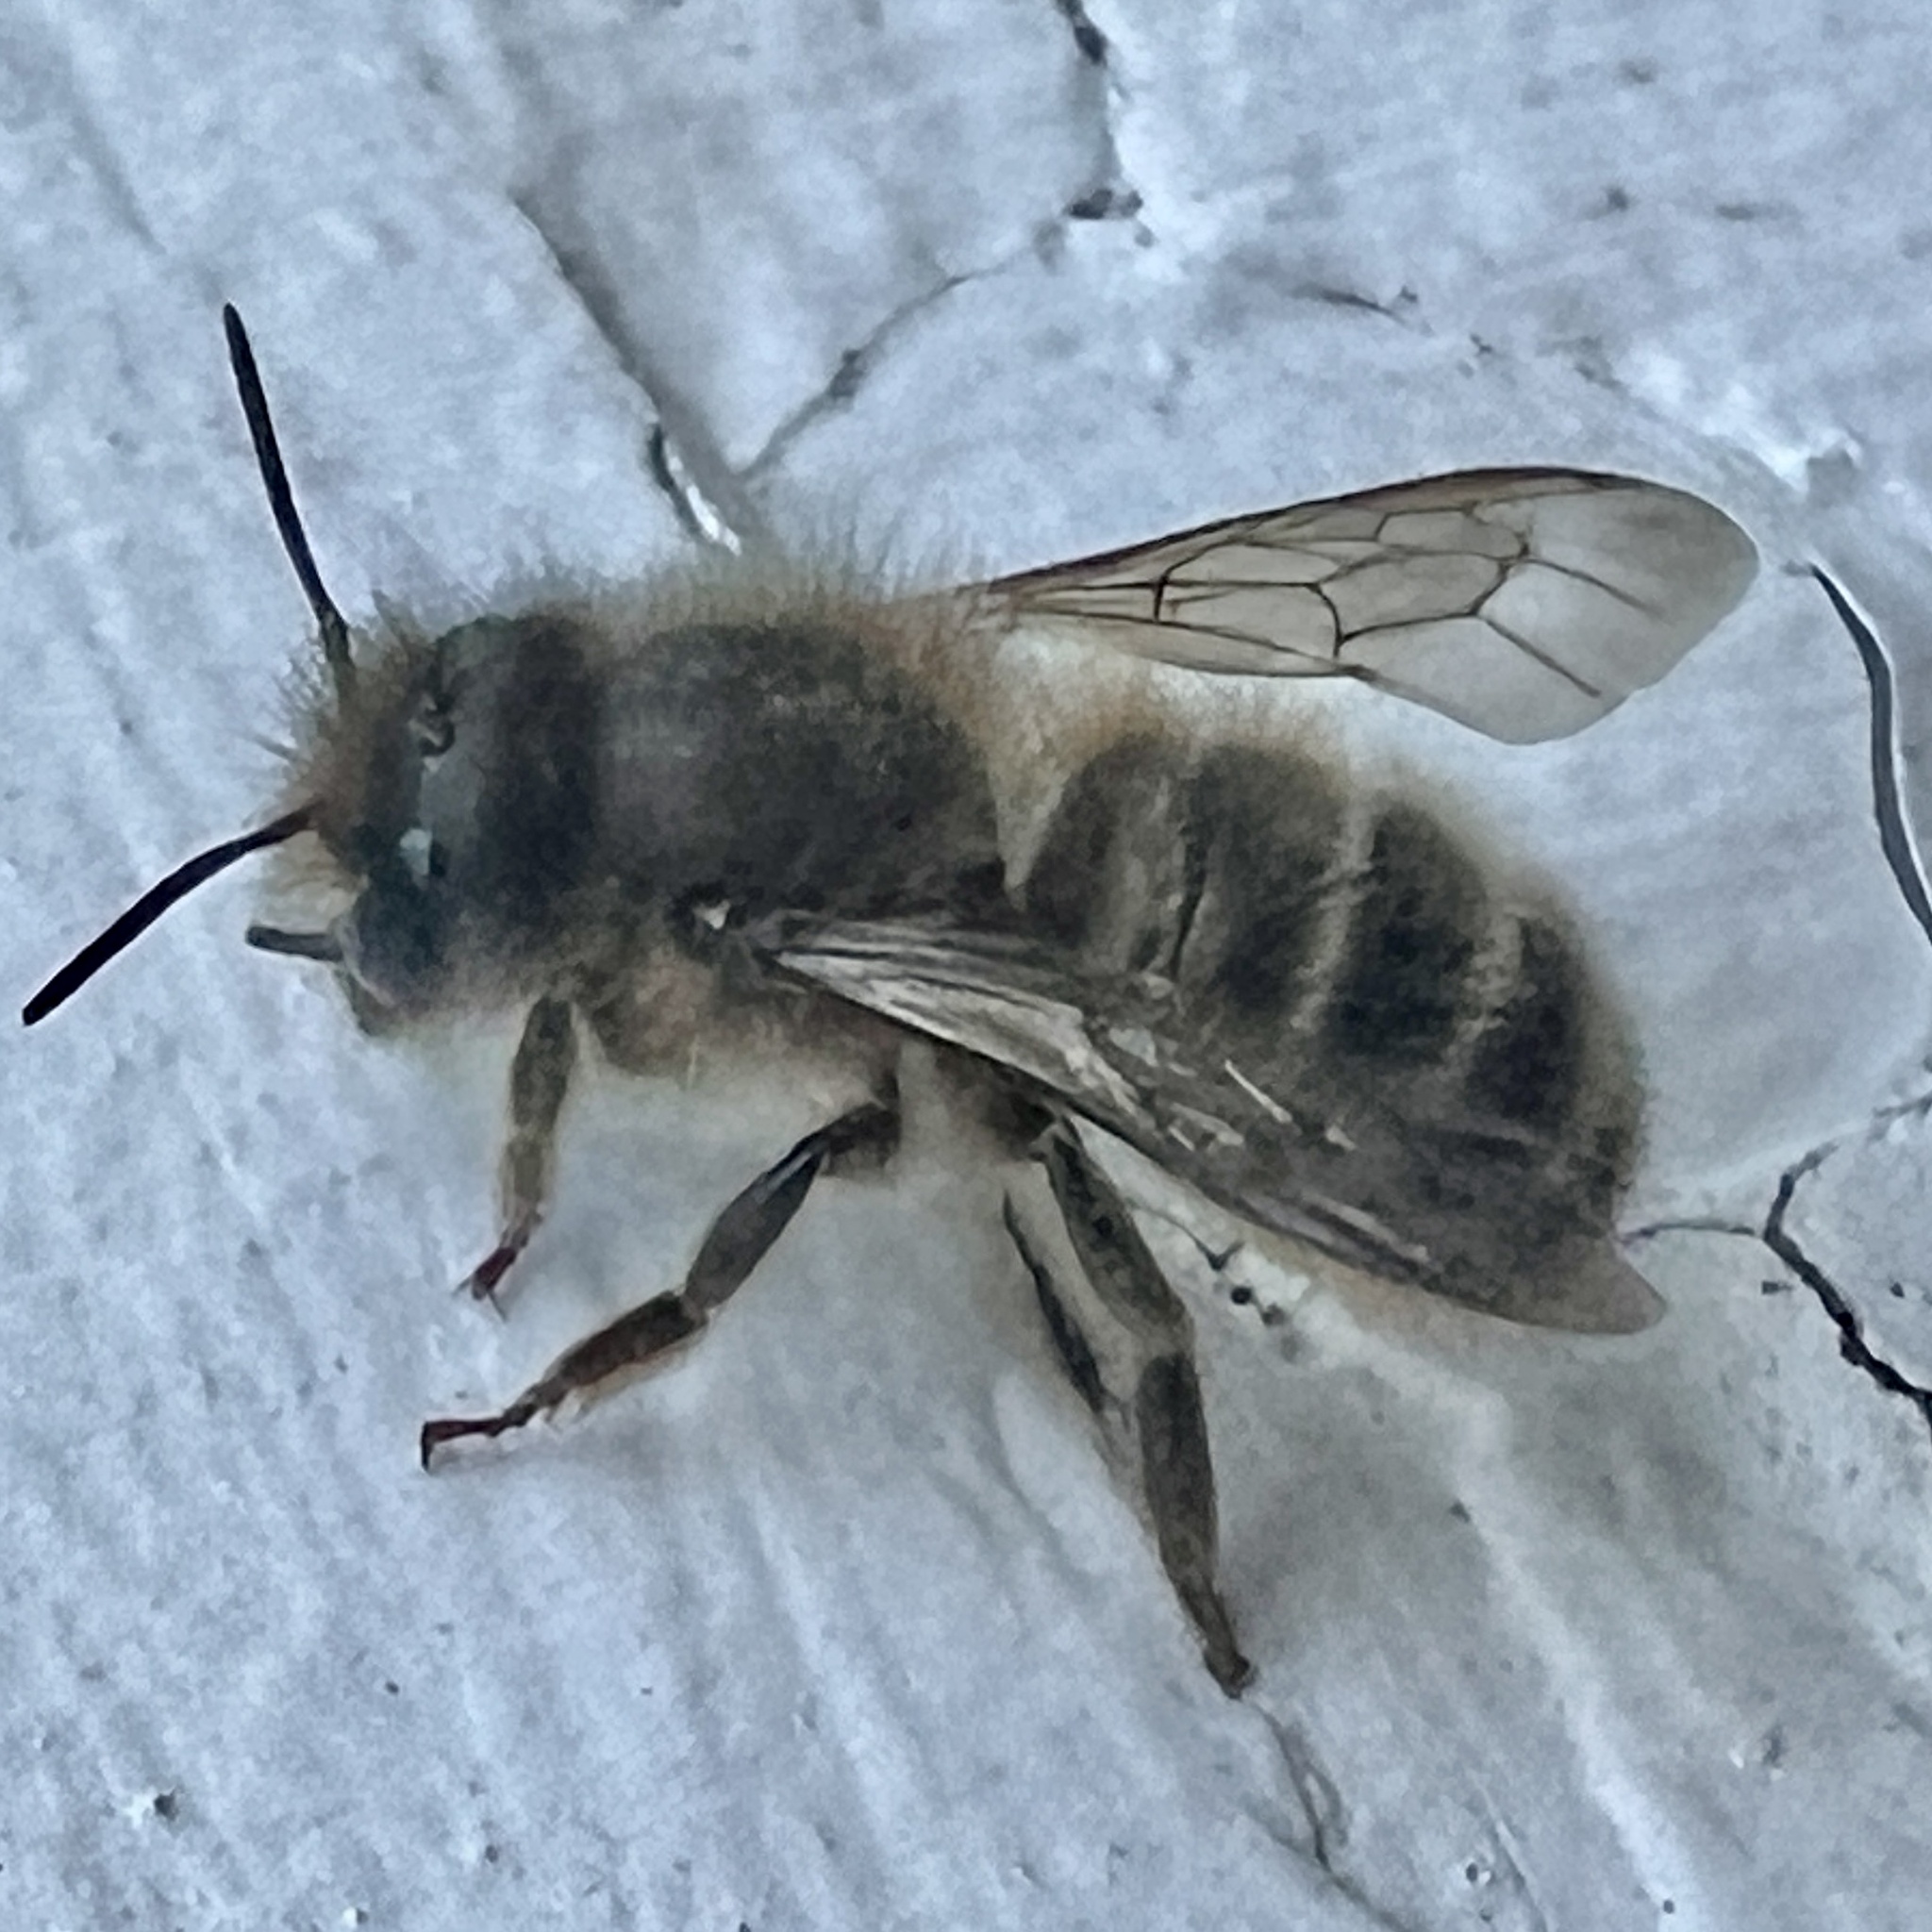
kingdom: Animalia
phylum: Arthropoda
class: Insecta
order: Hymenoptera
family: Megachilidae
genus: Osmia
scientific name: Osmia cornifrons
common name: Horn-faced bee
